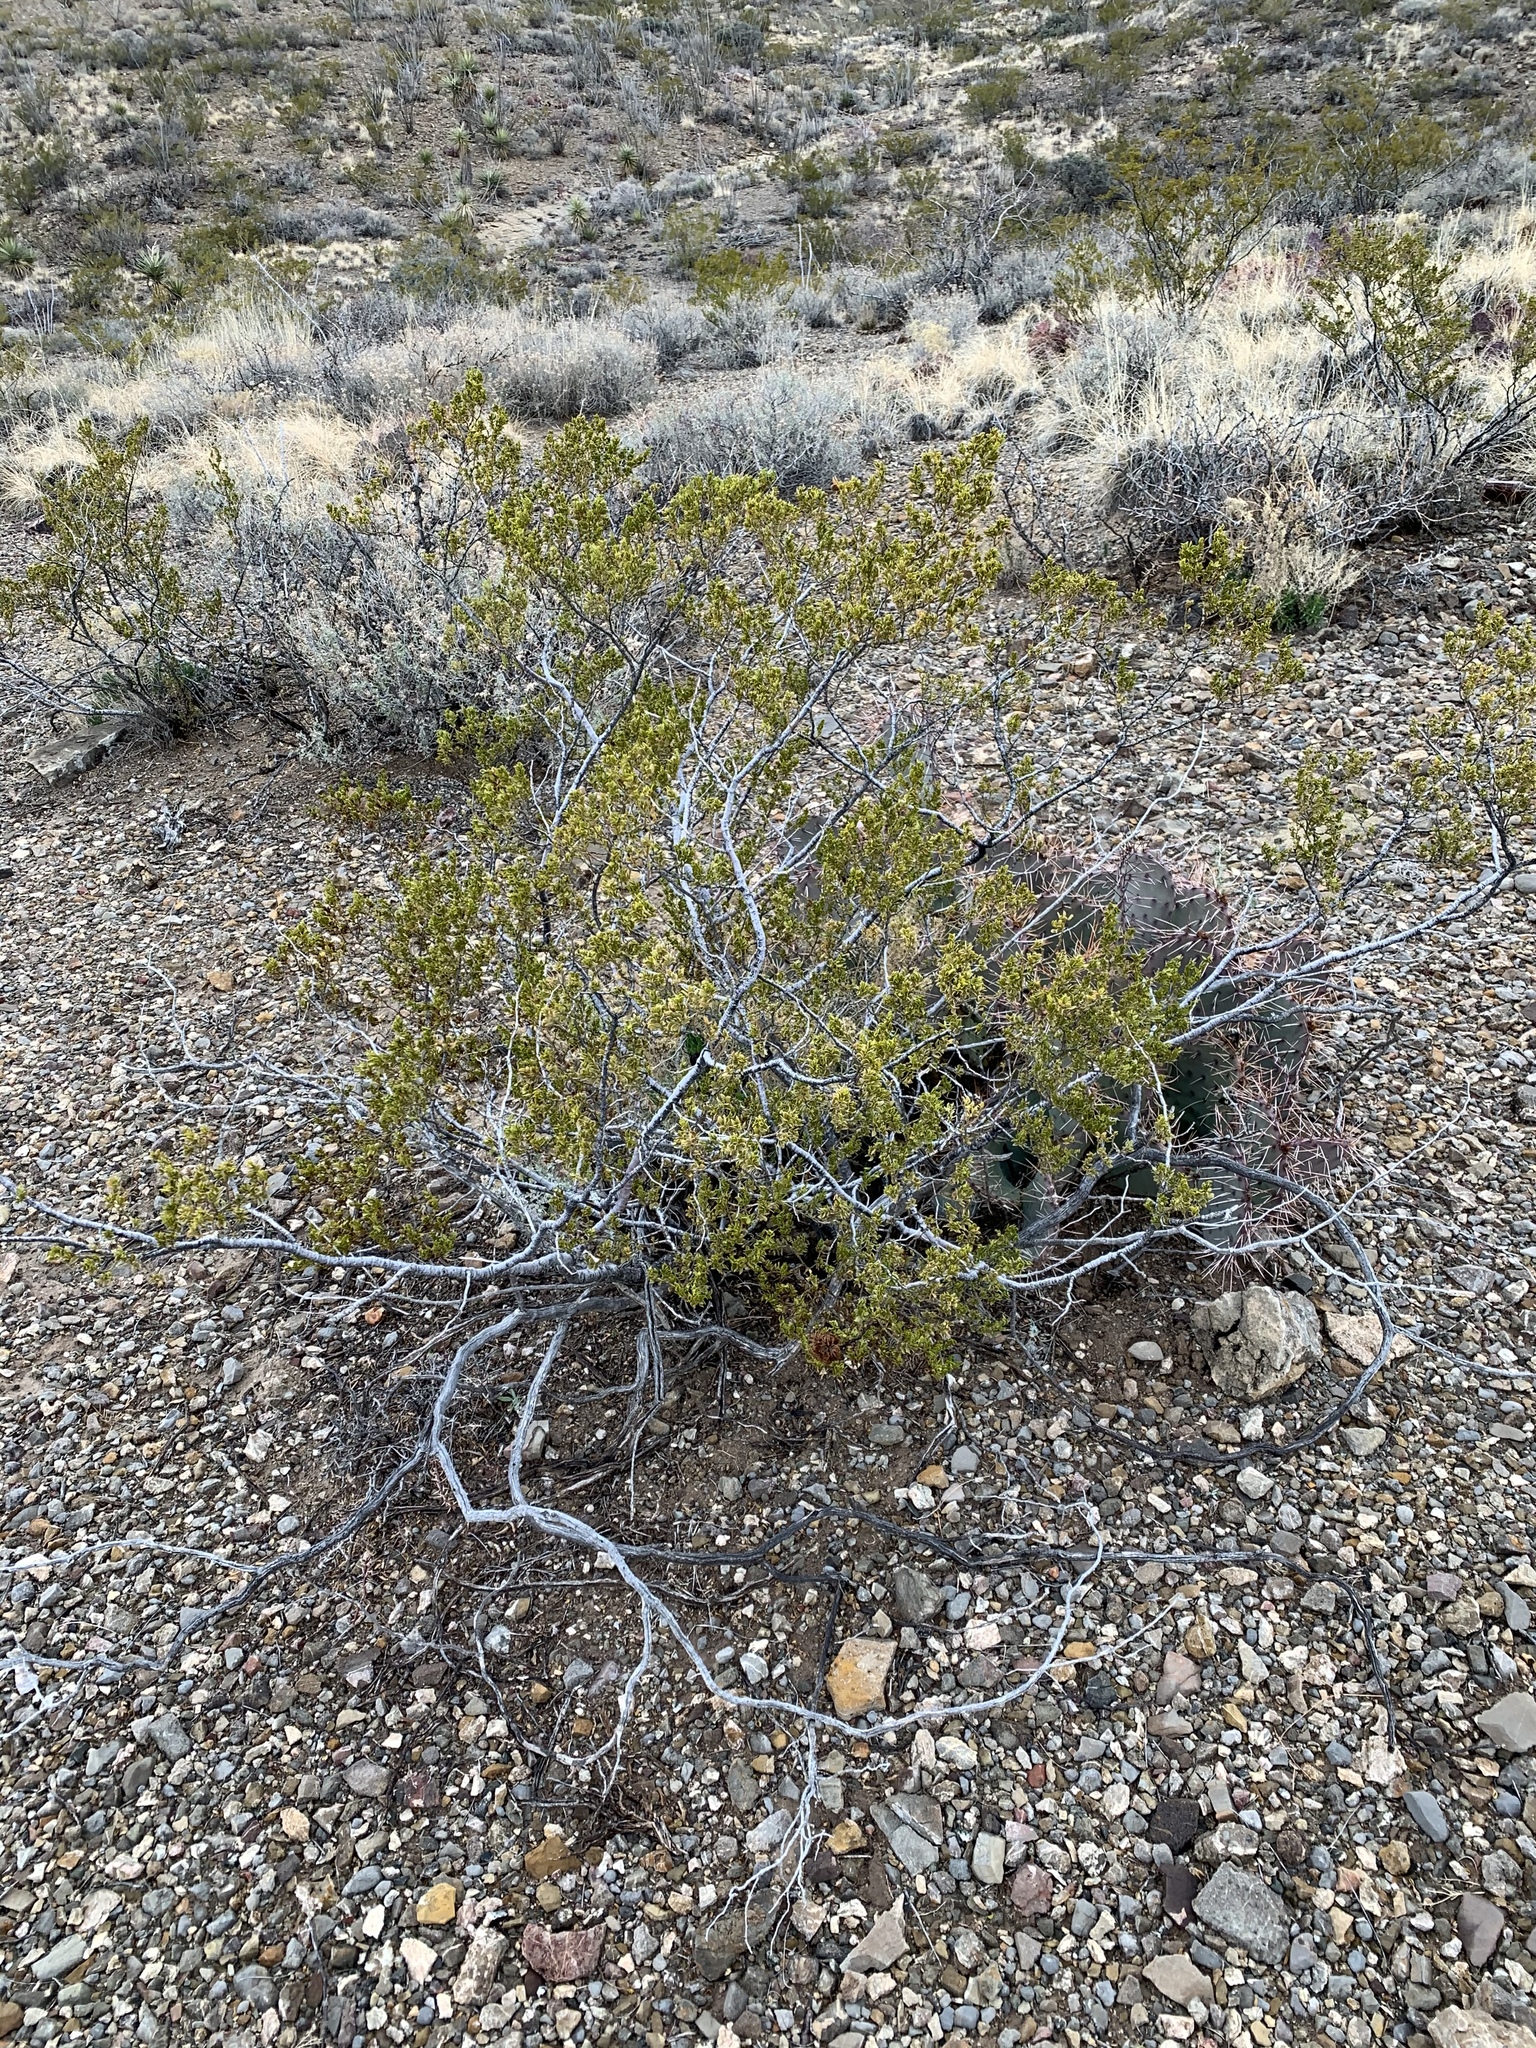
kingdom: Plantae
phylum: Tracheophyta
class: Magnoliopsida
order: Zygophyllales
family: Zygophyllaceae
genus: Larrea
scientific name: Larrea tridentata
